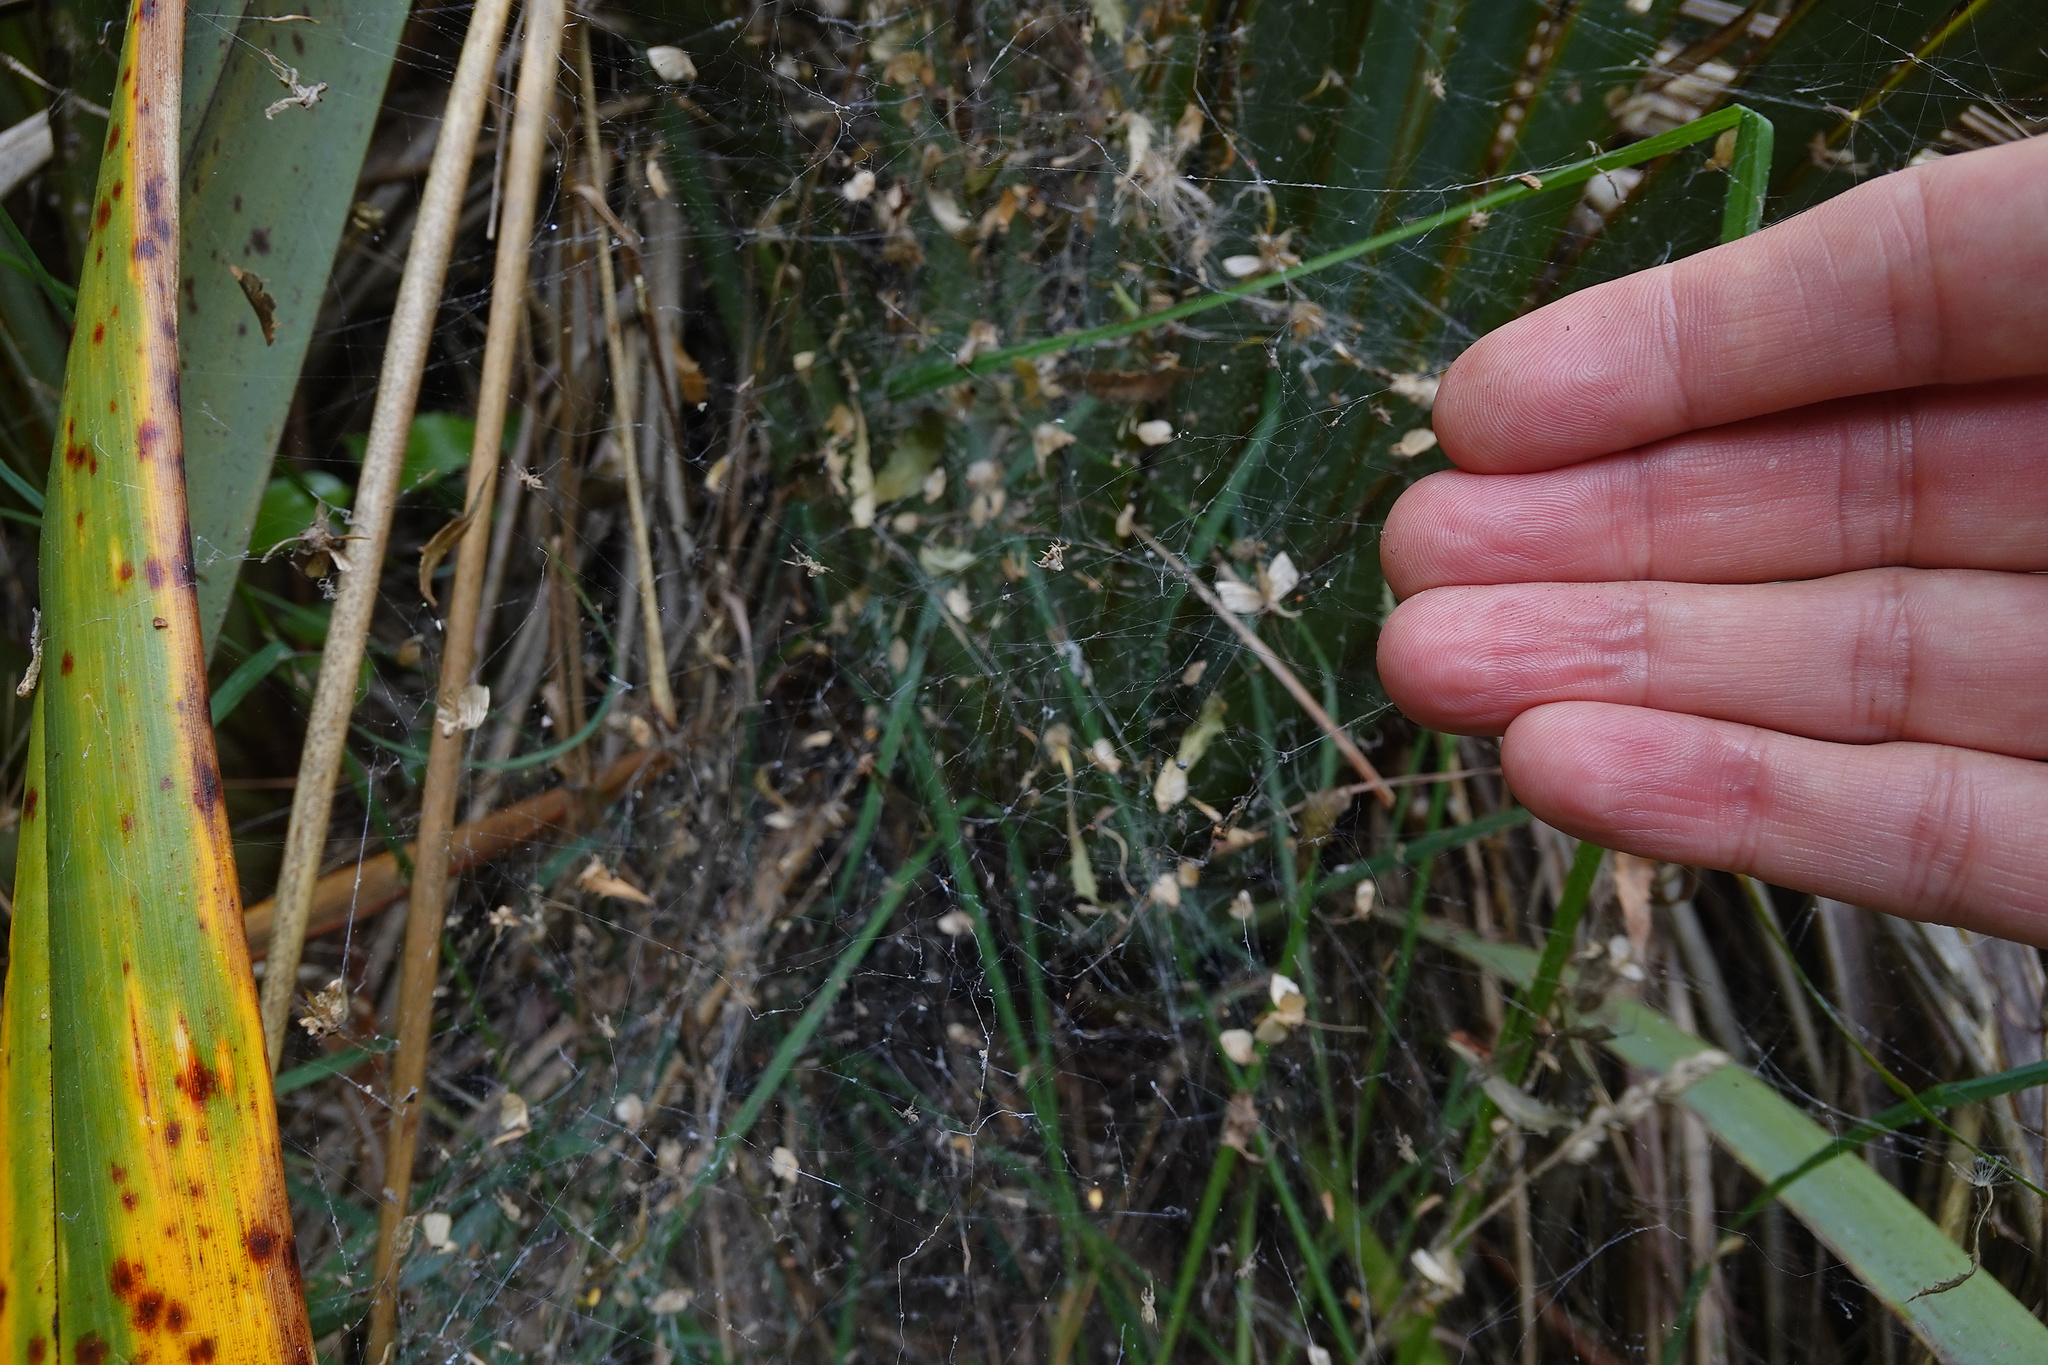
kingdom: Animalia
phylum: Arthropoda
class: Arachnida
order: Araneae
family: Uloboridae
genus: Philoponella
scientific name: Philoponella congregabilis
